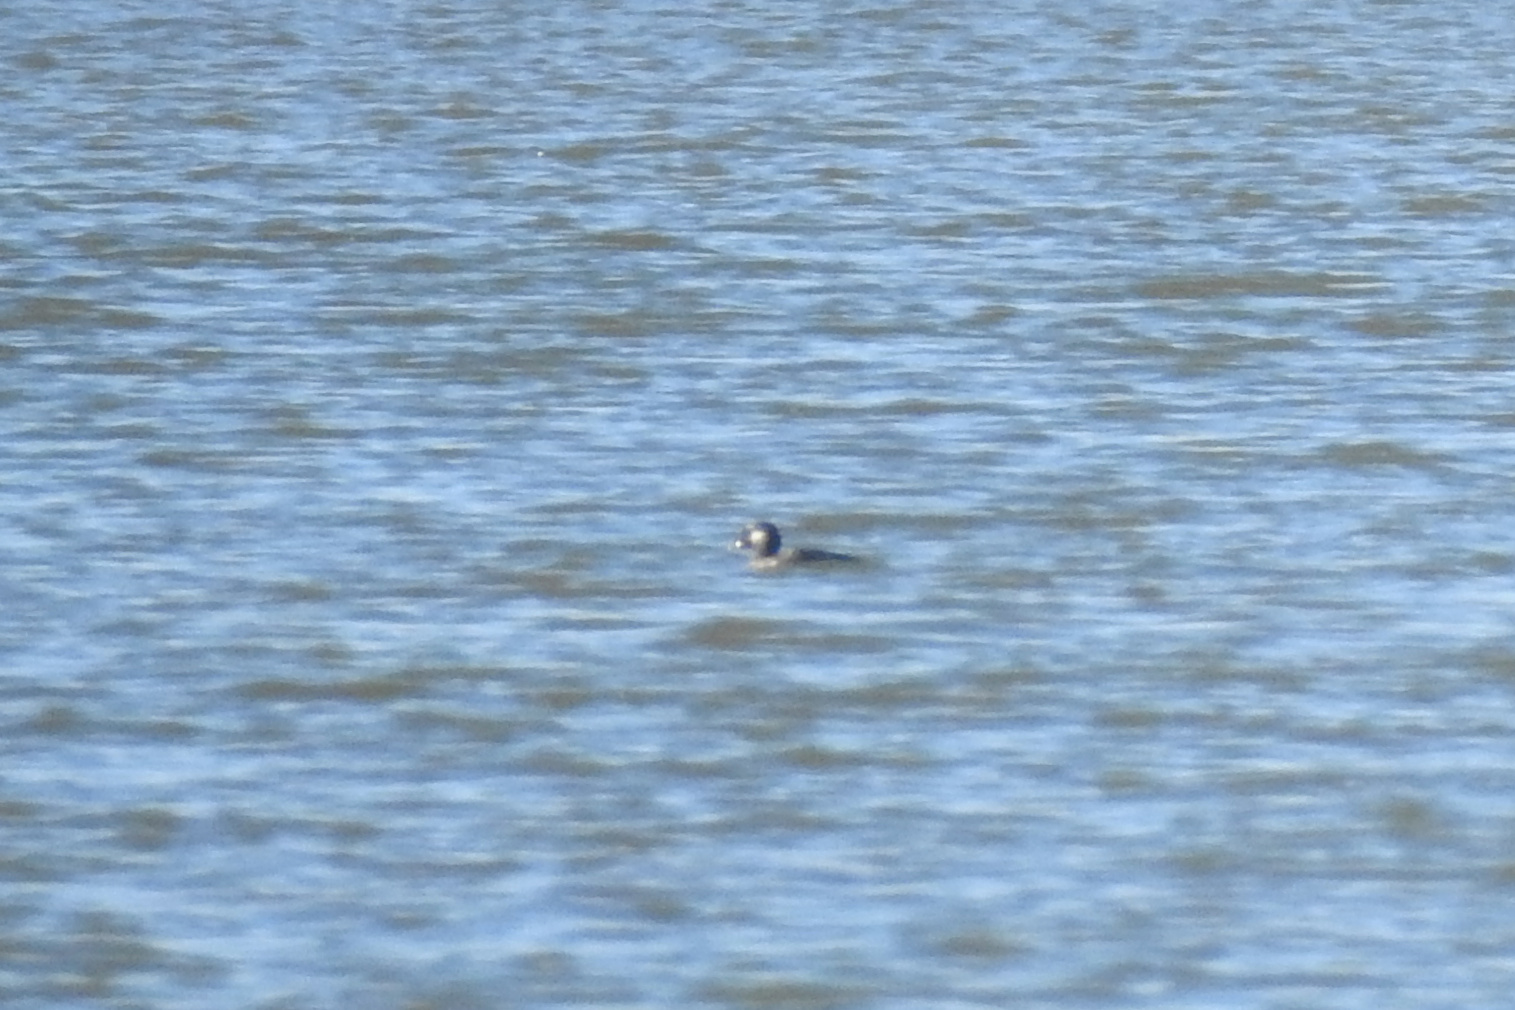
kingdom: Animalia
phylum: Chordata
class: Aves
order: Anseriformes
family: Anatidae
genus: Bucephala
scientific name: Bucephala albeola
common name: Bufflehead
